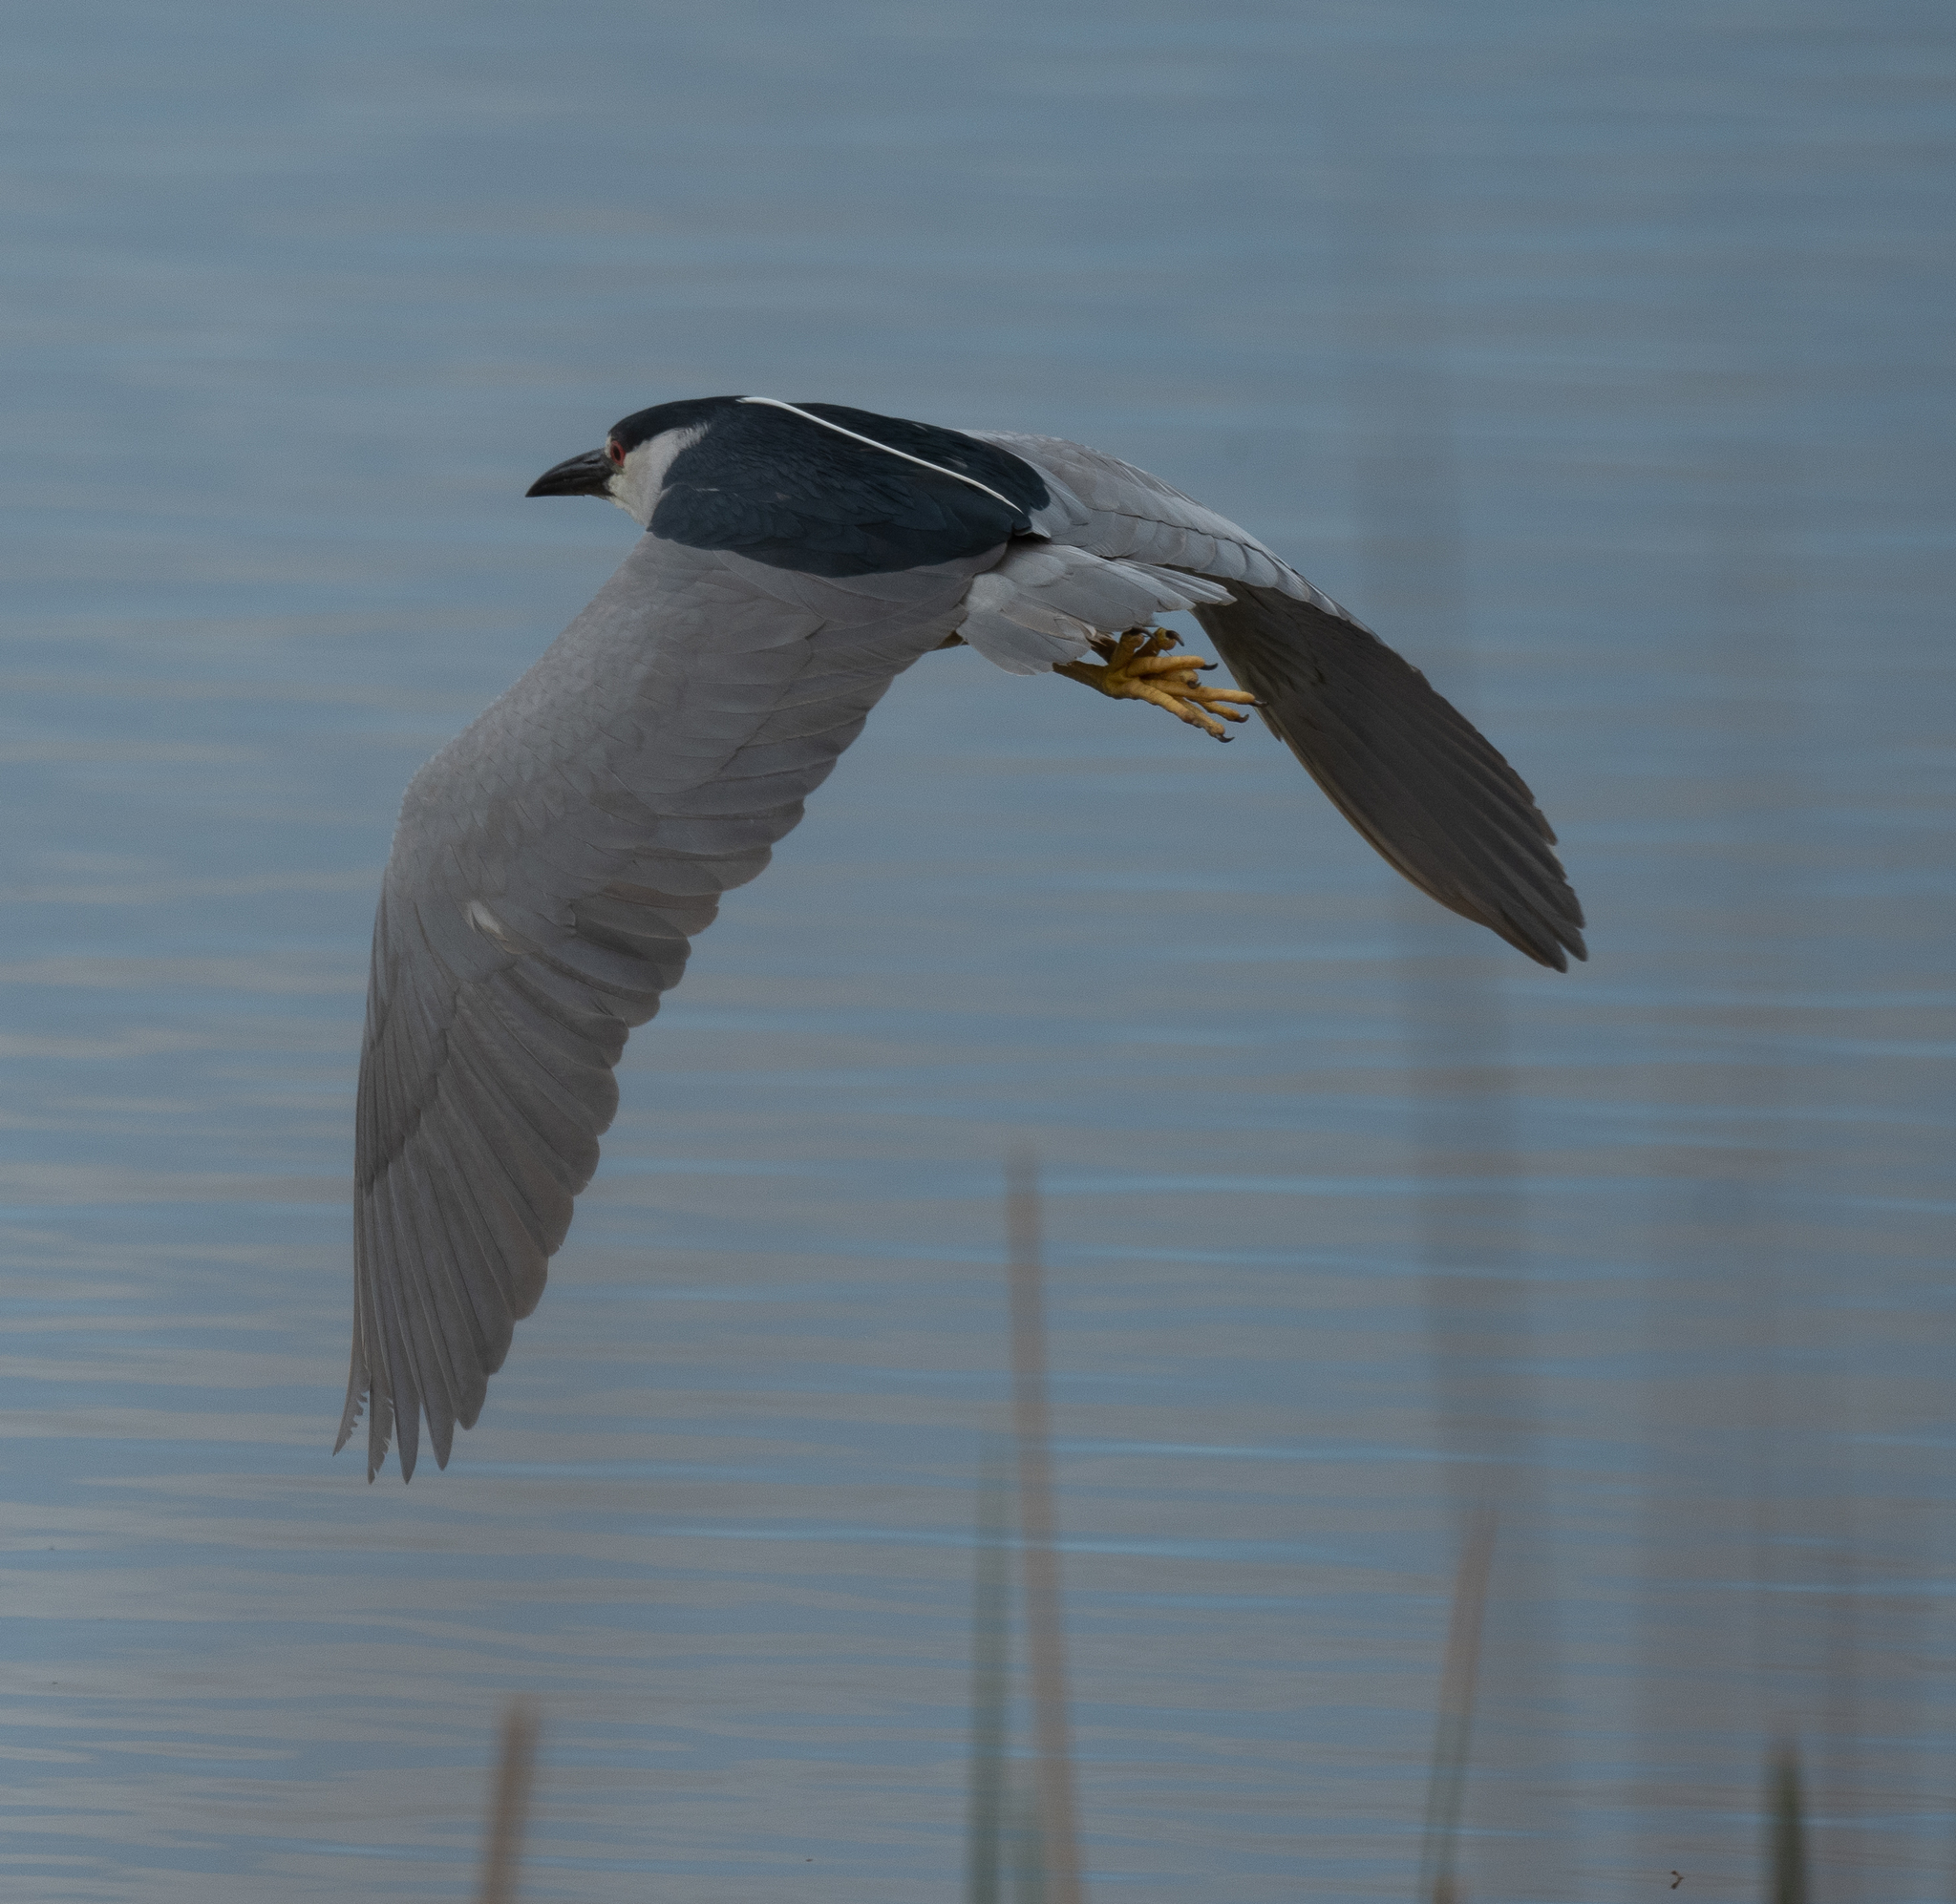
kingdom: Animalia
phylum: Chordata
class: Aves
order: Pelecaniformes
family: Ardeidae
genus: Nycticorax
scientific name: Nycticorax nycticorax
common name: Black-crowned night heron
